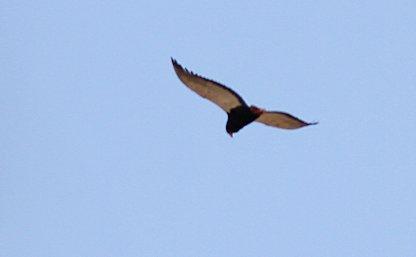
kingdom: Animalia
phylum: Chordata
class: Aves
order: Accipitriformes
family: Accipitridae
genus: Terathopius
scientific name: Terathopius ecaudatus
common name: Bateleur
